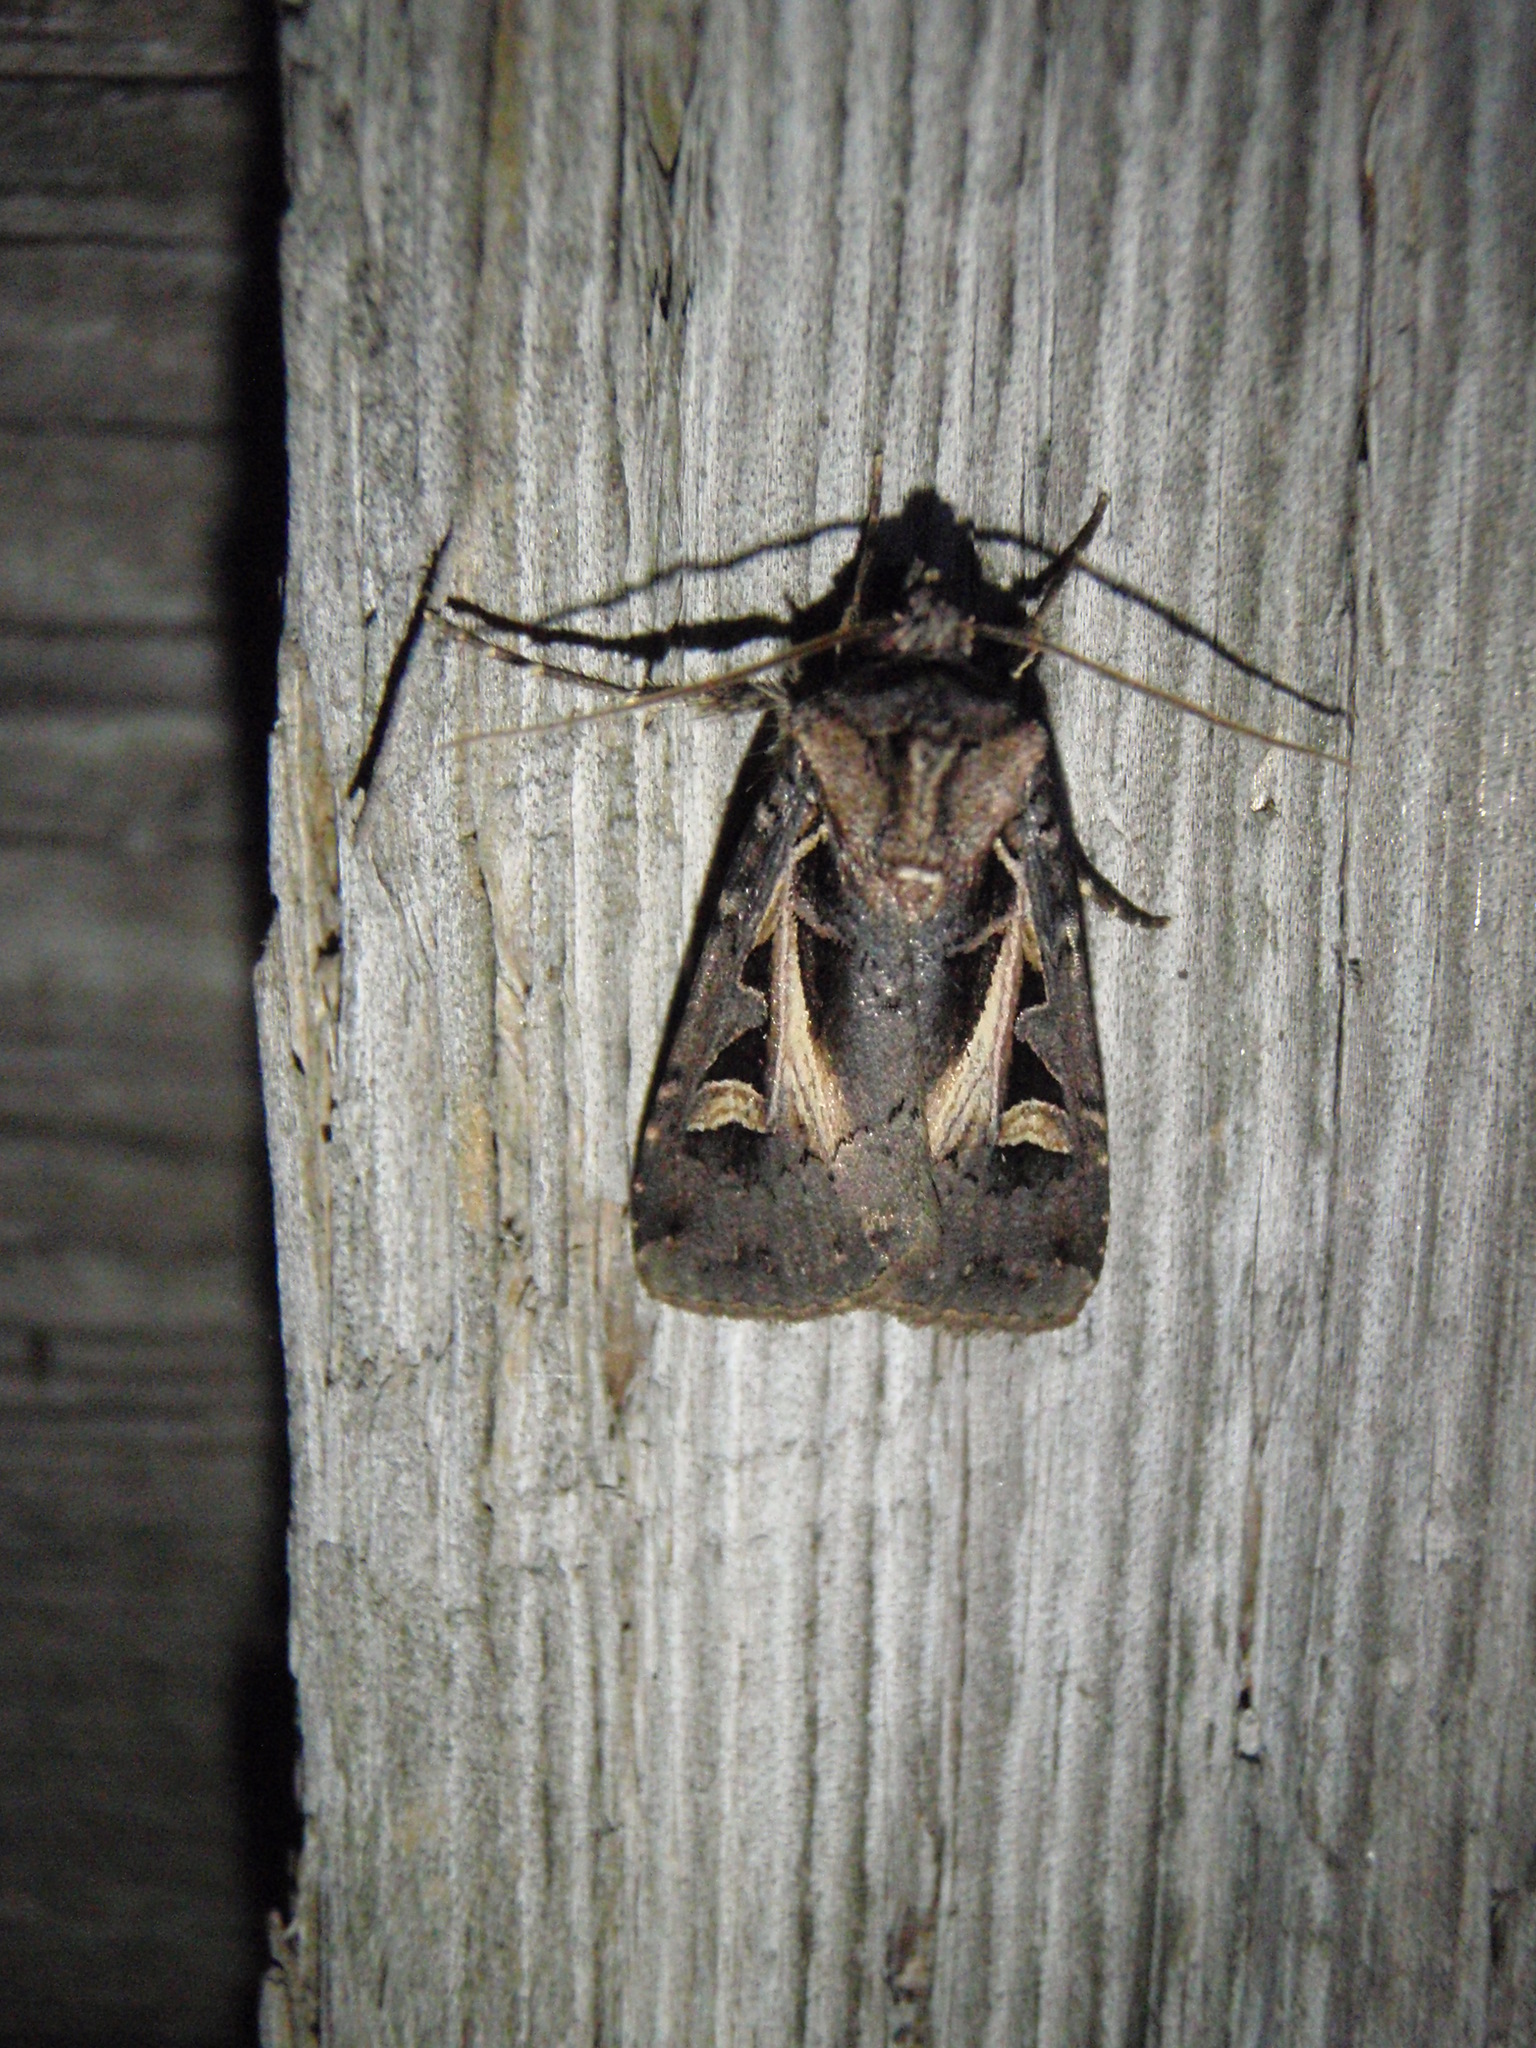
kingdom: Animalia
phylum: Arthropoda
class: Insecta
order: Lepidoptera
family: Noctuidae
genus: Feltia
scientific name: Feltia herilis
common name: Master's dart
